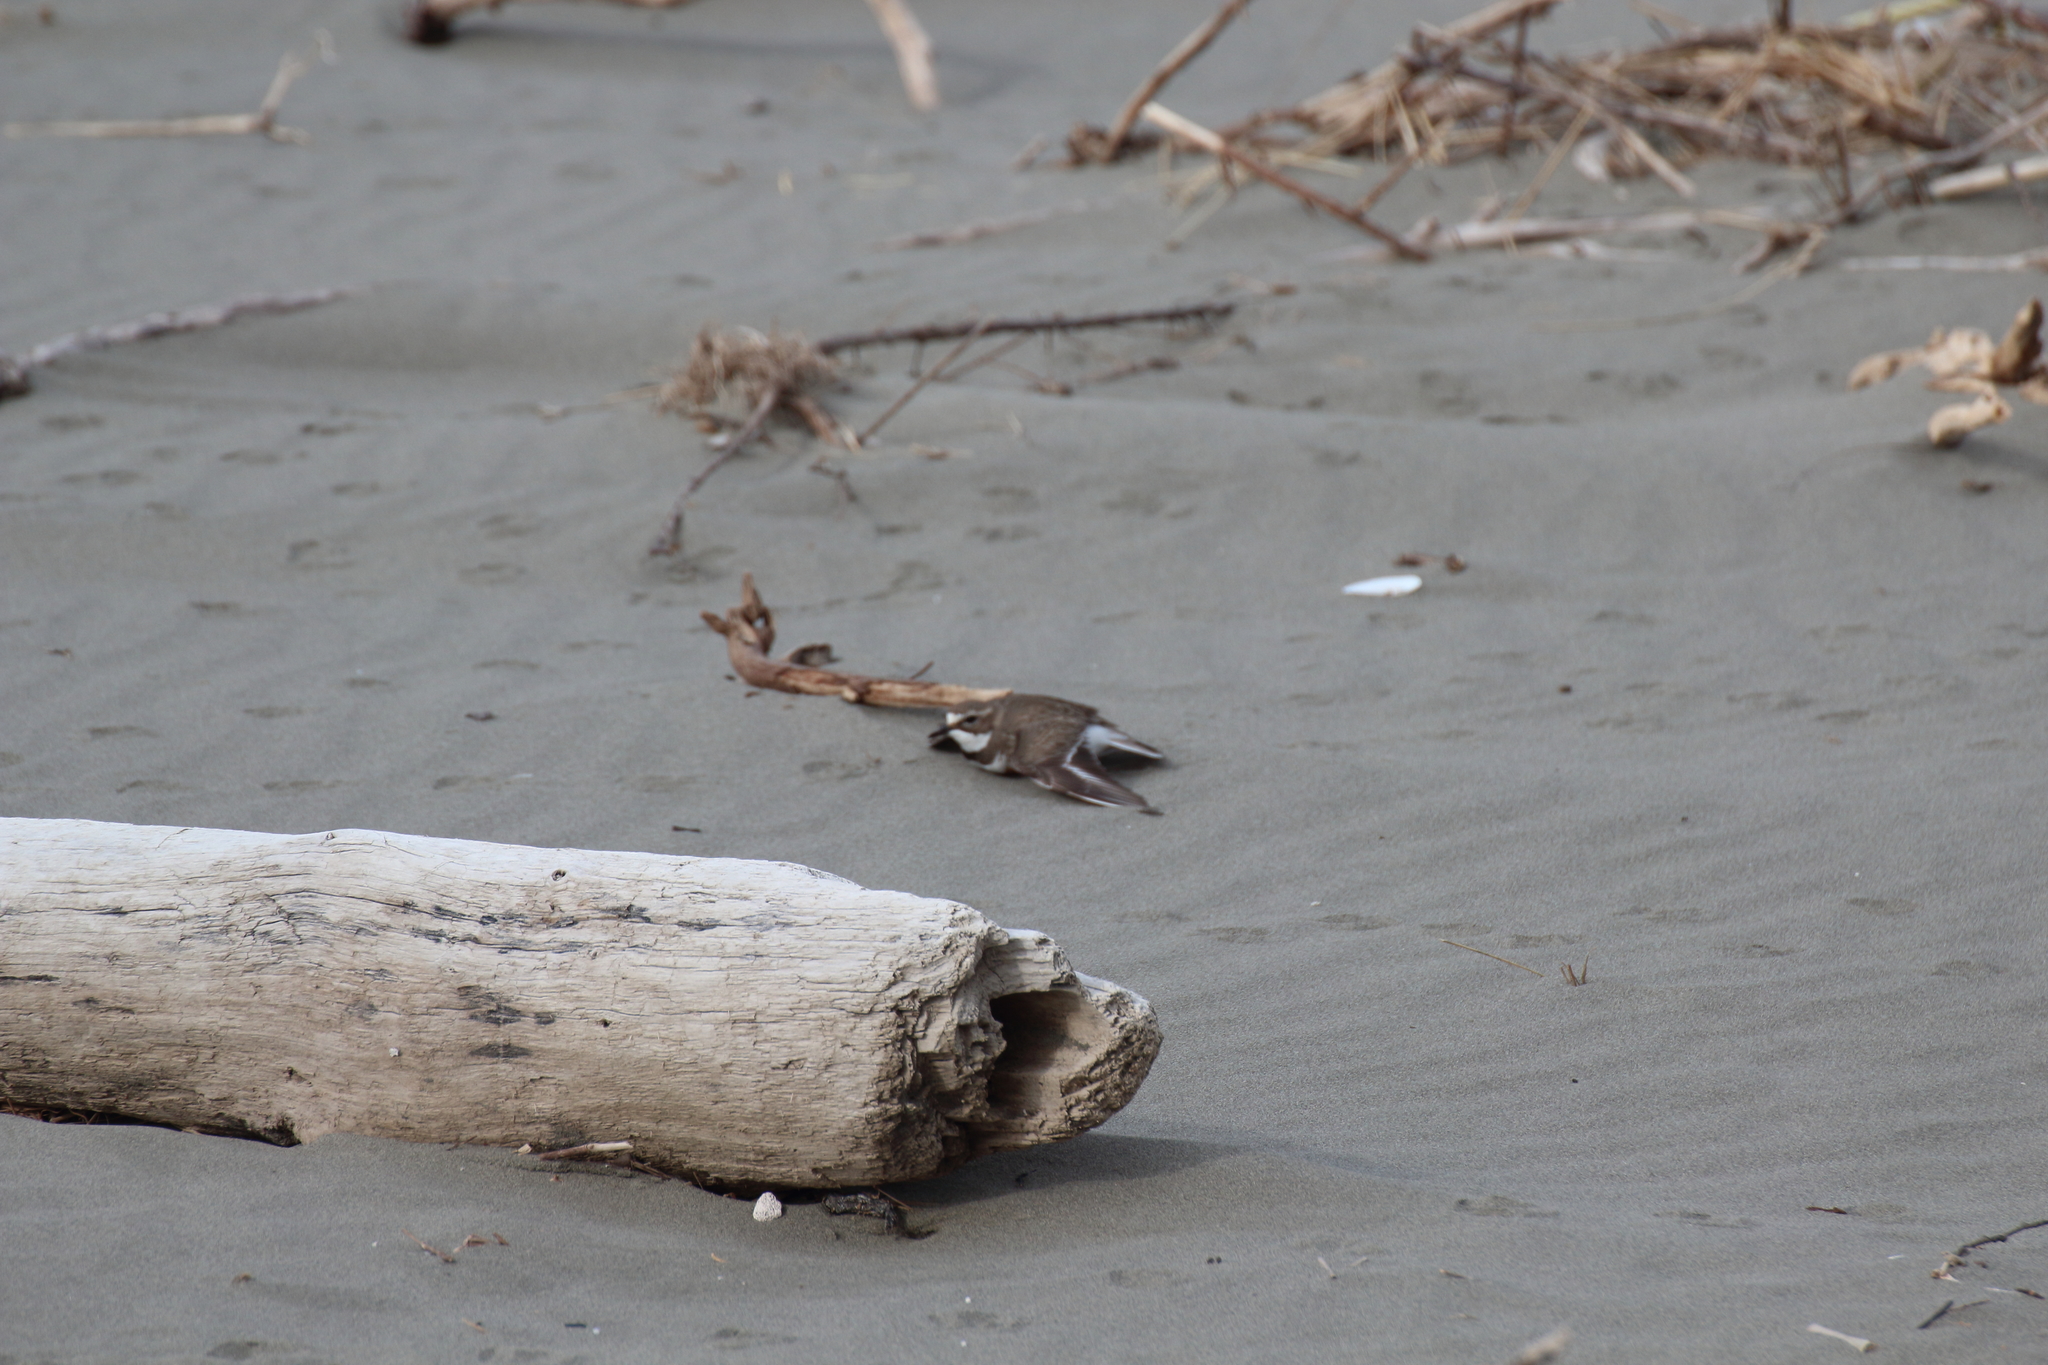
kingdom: Animalia
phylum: Chordata
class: Aves
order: Charadriiformes
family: Charadriidae
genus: Anarhynchus
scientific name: Anarhynchus
